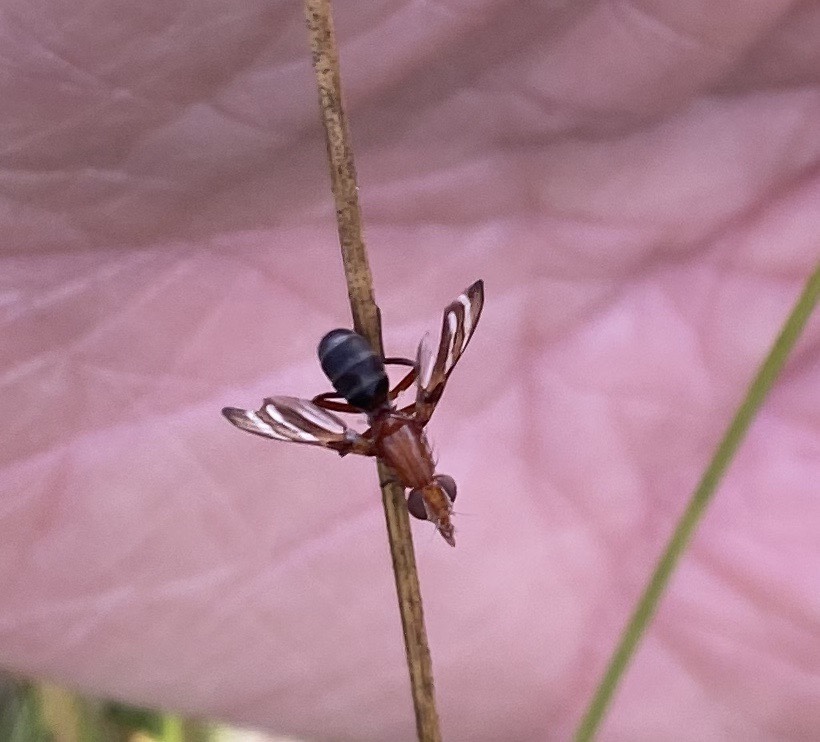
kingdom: Animalia
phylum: Arthropoda
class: Insecta
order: Diptera
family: Ulidiidae
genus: Tritoxa
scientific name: Tritoxa incurva
